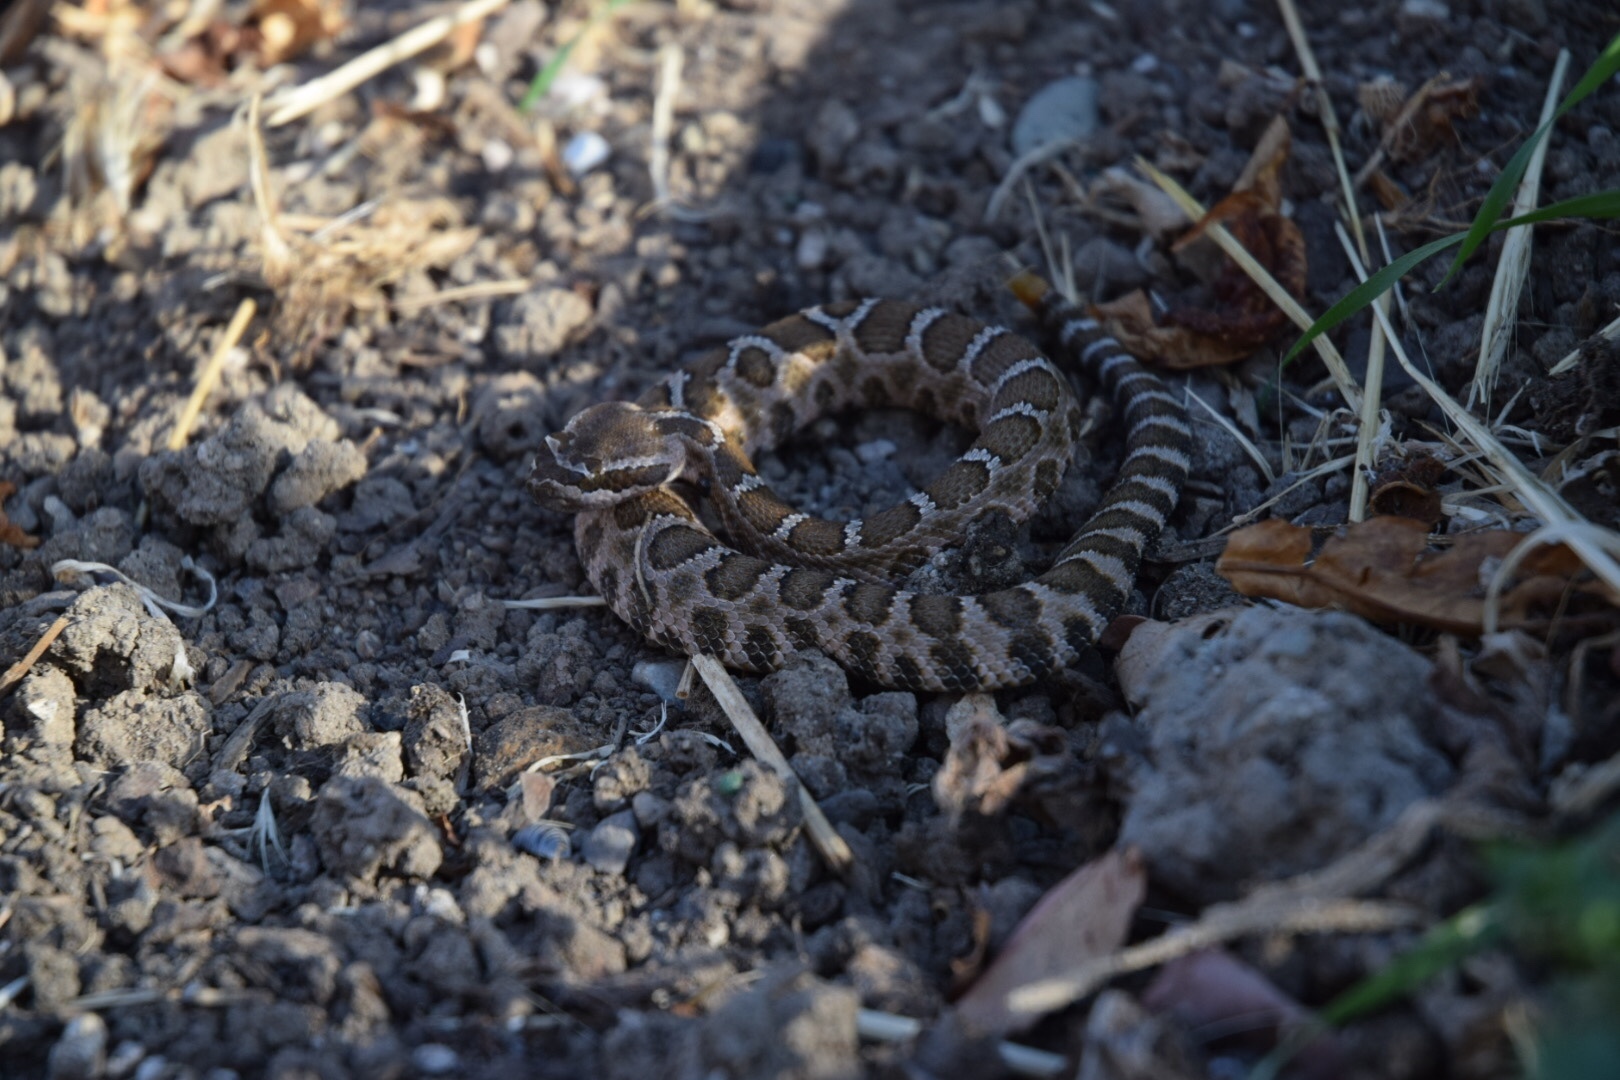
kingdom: Animalia
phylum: Chordata
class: Squamata
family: Viperidae
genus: Crotalus
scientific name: Crotalus oreganus
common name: Abyssus
